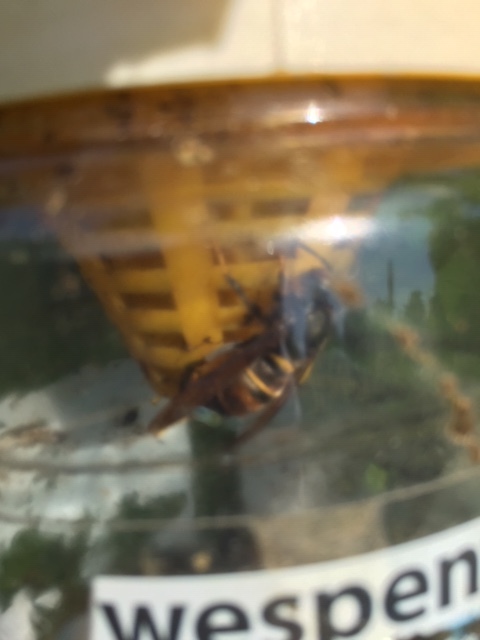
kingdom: Animalia
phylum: Arthropoda
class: Insecta
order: Hymenoptera
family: Vespidae
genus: Vespa
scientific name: Vespa velutina
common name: Asian hornet
